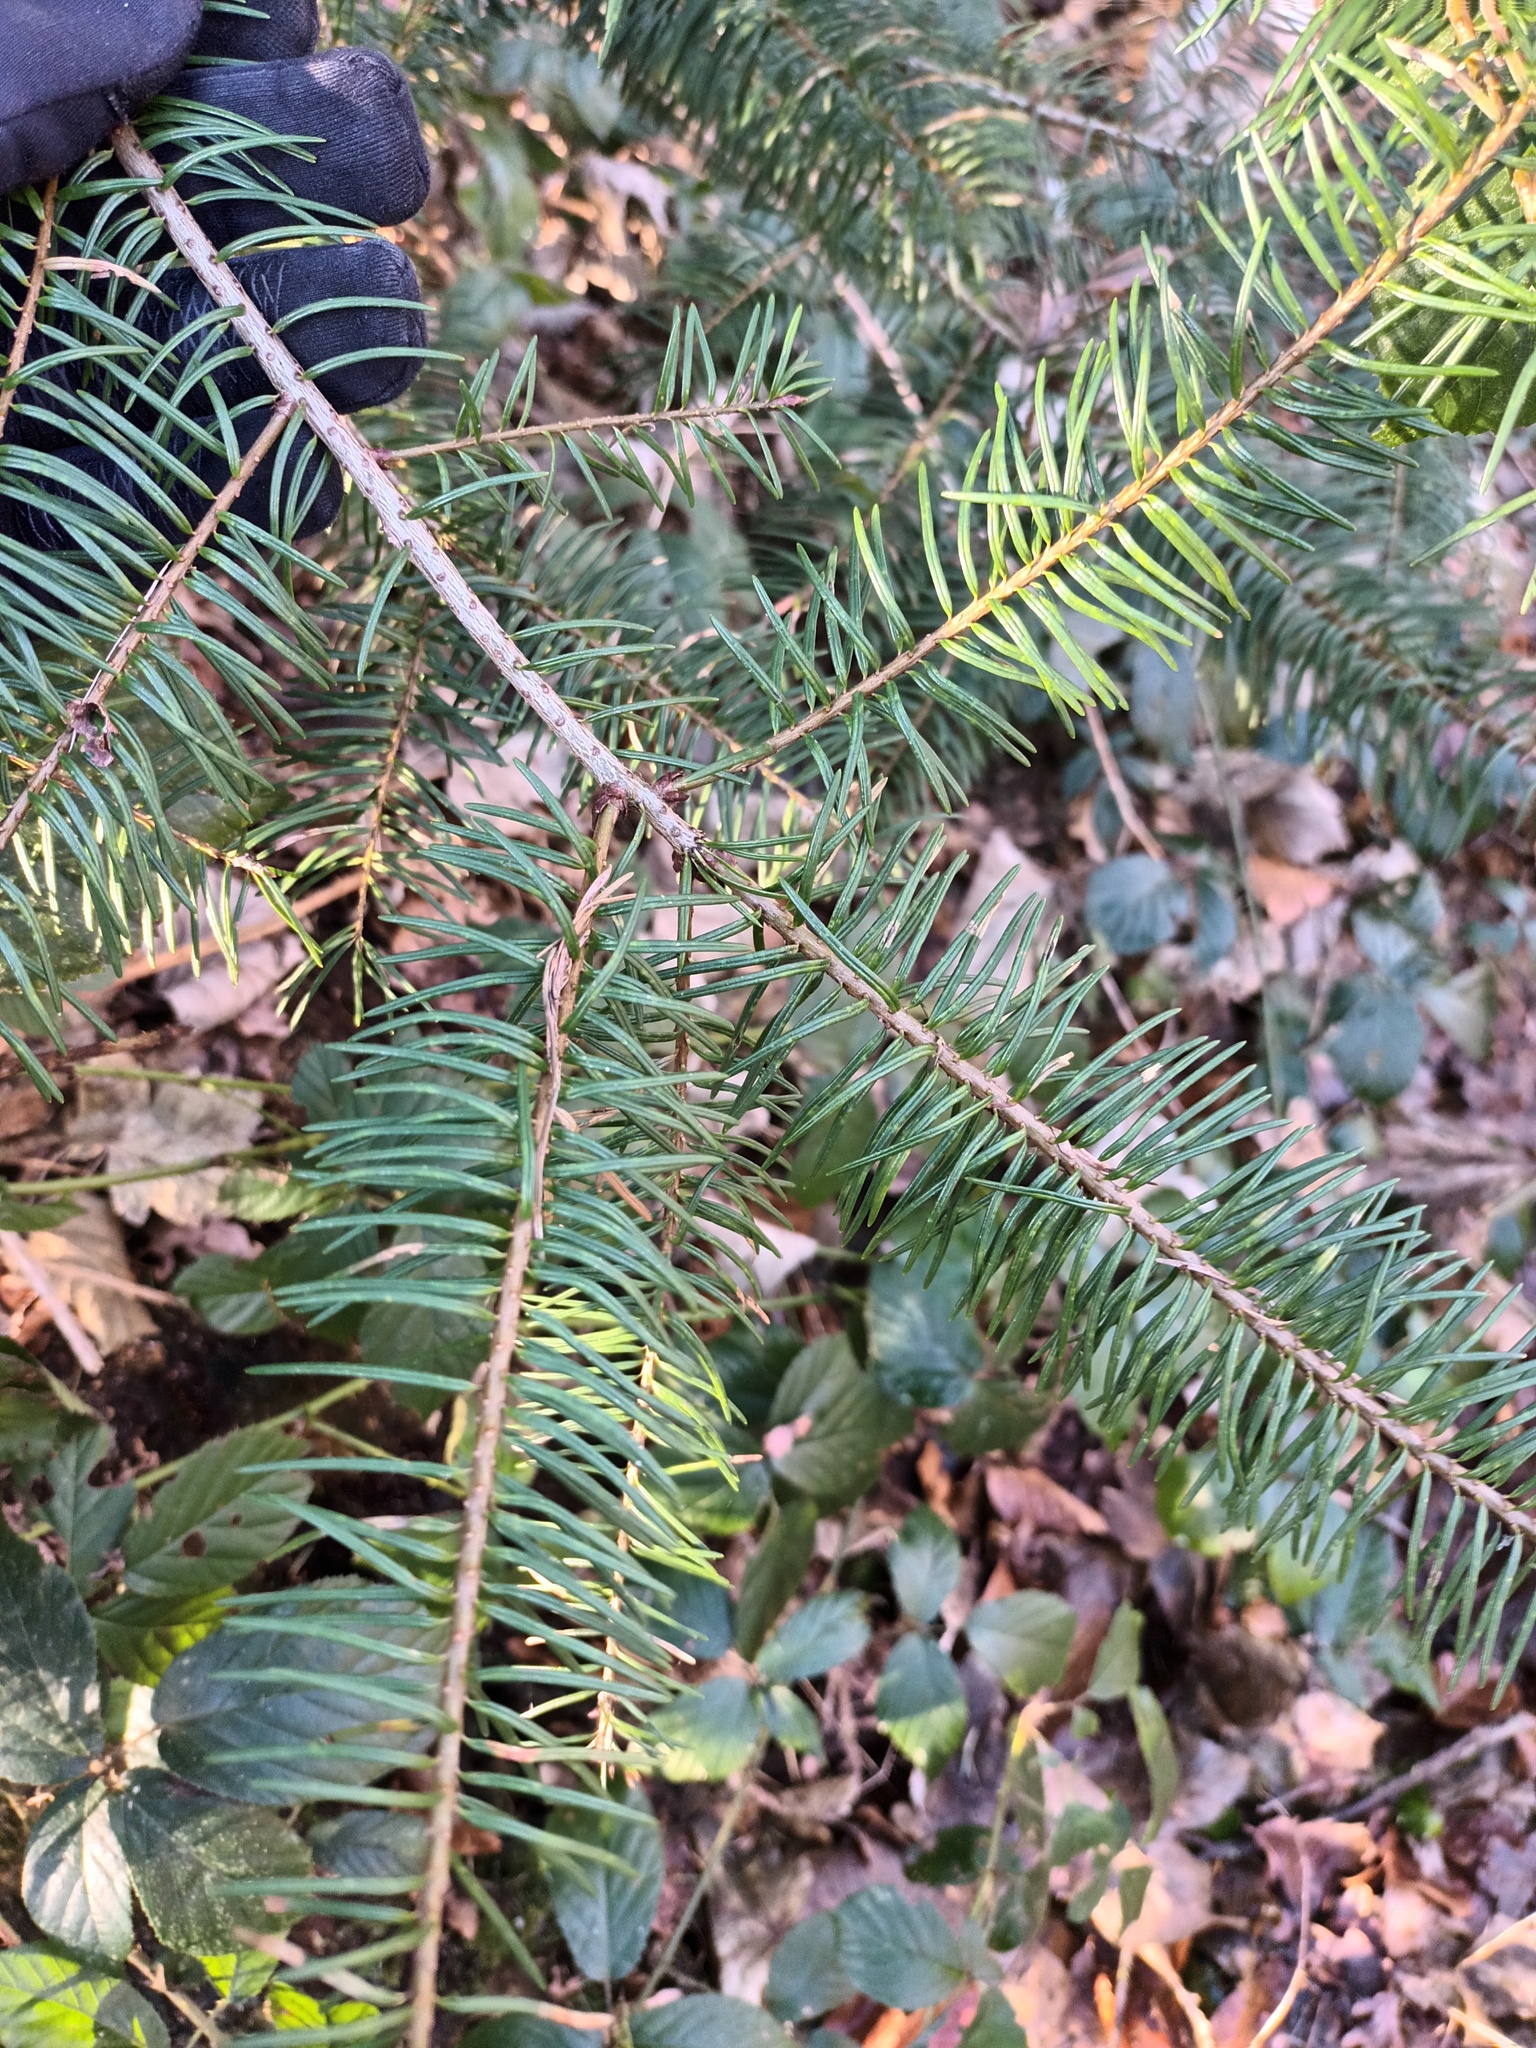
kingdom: Plantae
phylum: Tracheophyta
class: Pinopsida
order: Pinales
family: Pinaceae
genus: Pseudotsuga
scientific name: Pseudotsuga menziesii
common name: Douglas fir
